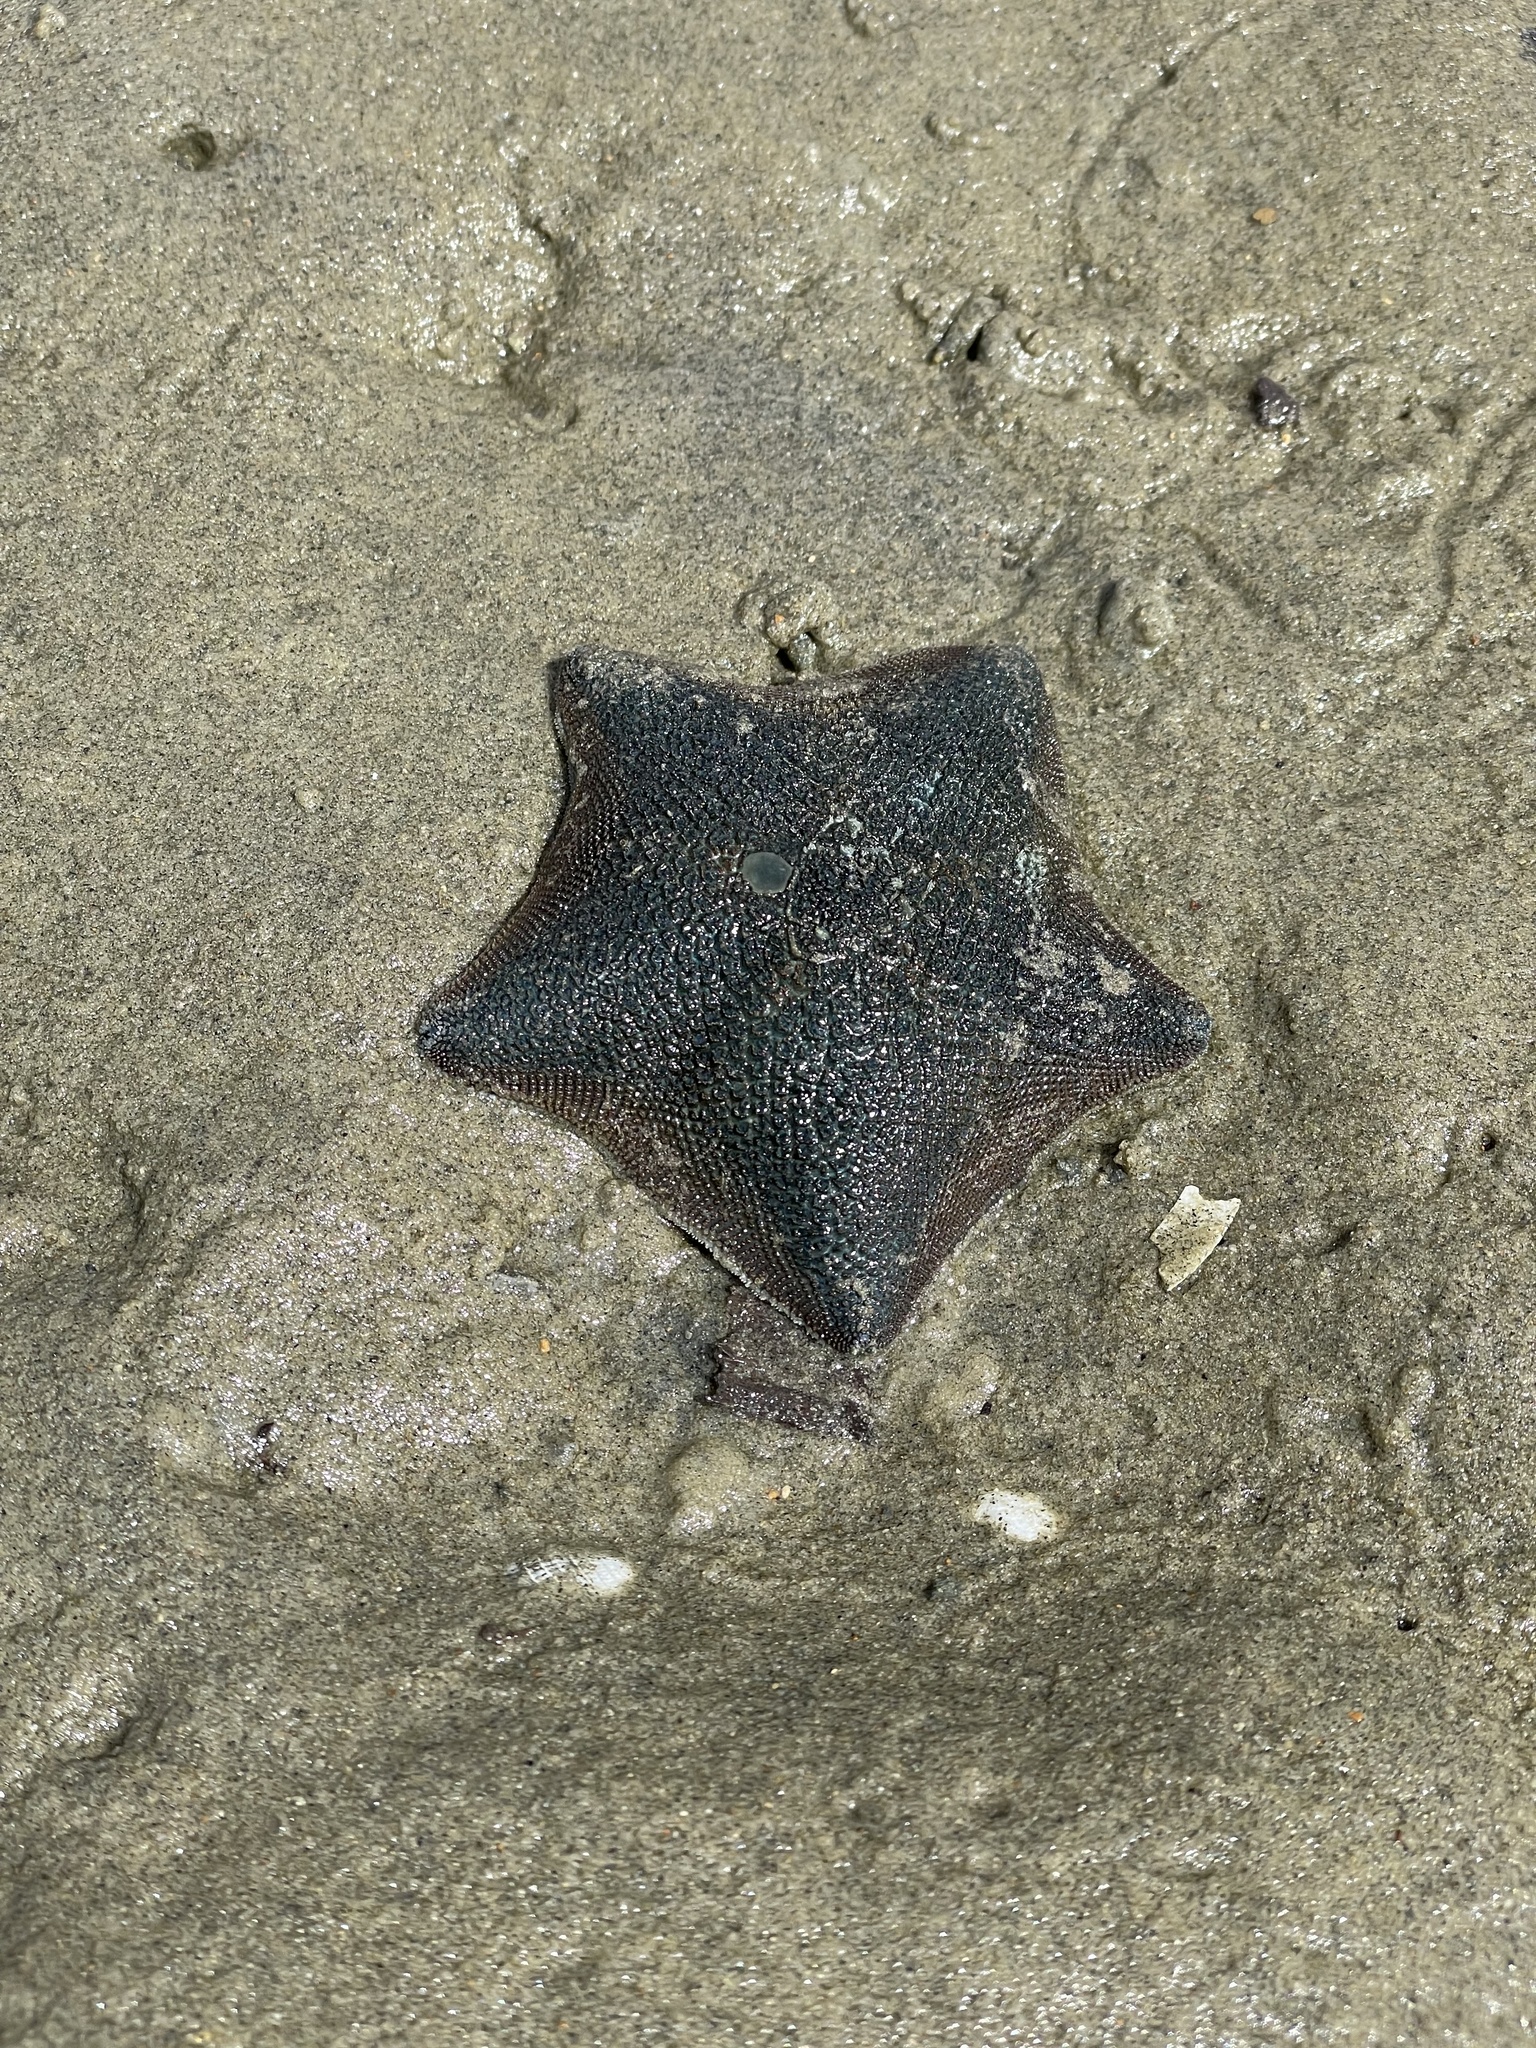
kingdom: Animalia
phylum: Echinodermata
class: Asteroidea
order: Valvatida
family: Asterinidae
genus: Patiriella
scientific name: Patiriella regularis
